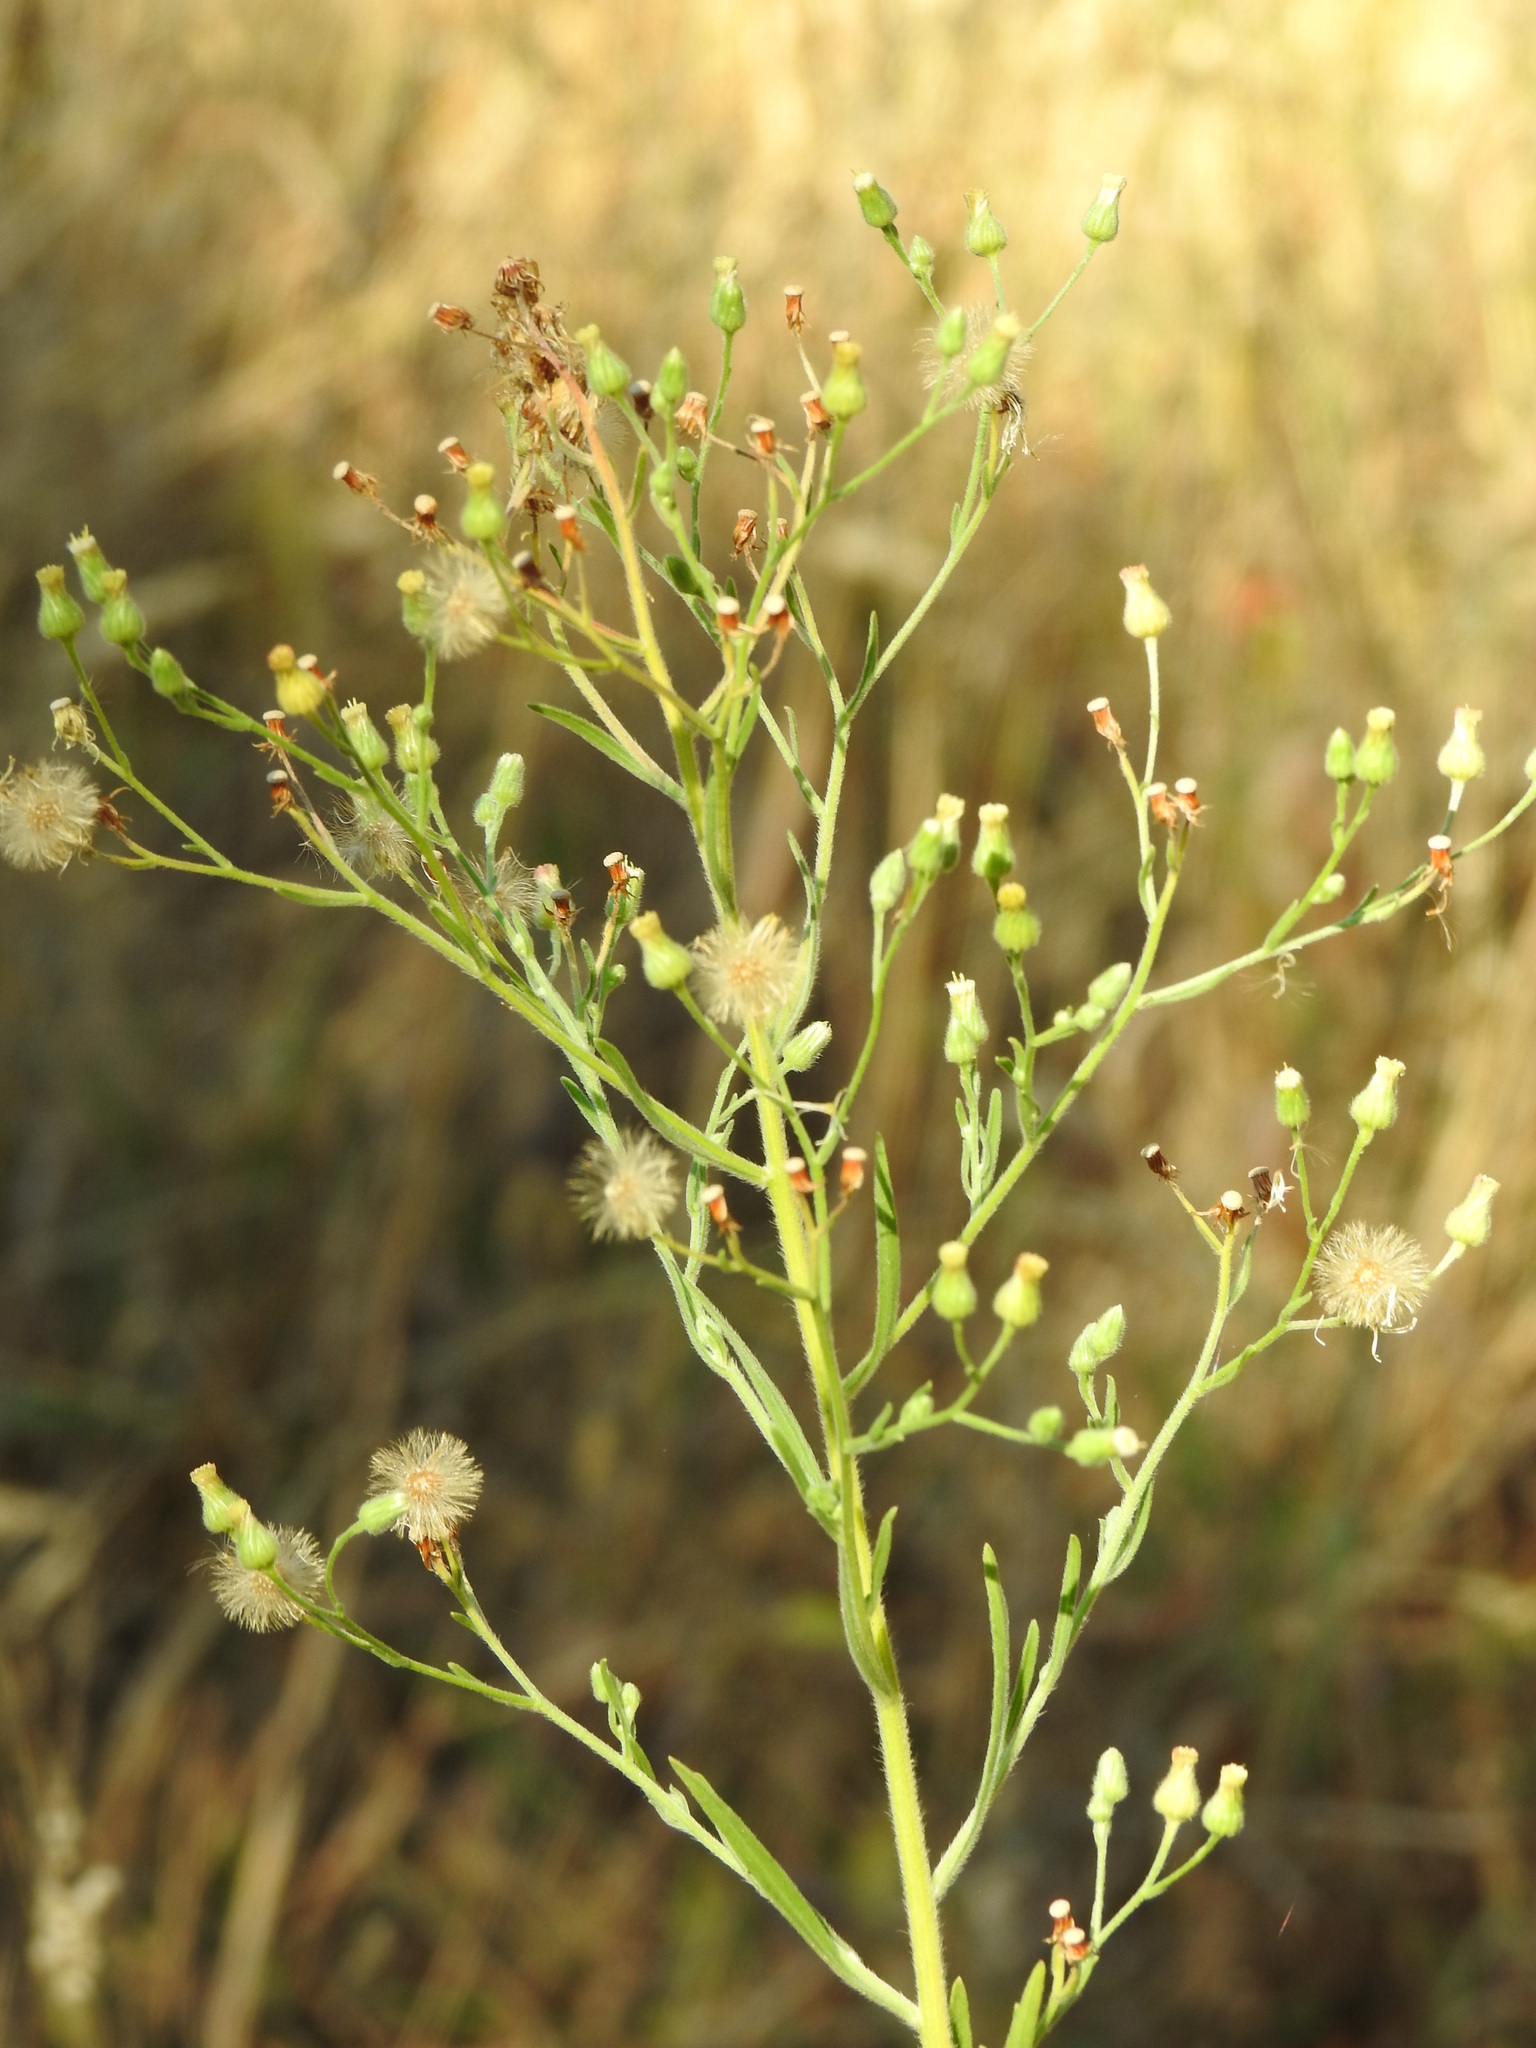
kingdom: Plantae
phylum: Tracheophyta
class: Magnoliopsida
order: Asterales
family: Asteraceae
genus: Erigeron
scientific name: Erigeron sumatrensis
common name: Daisy
